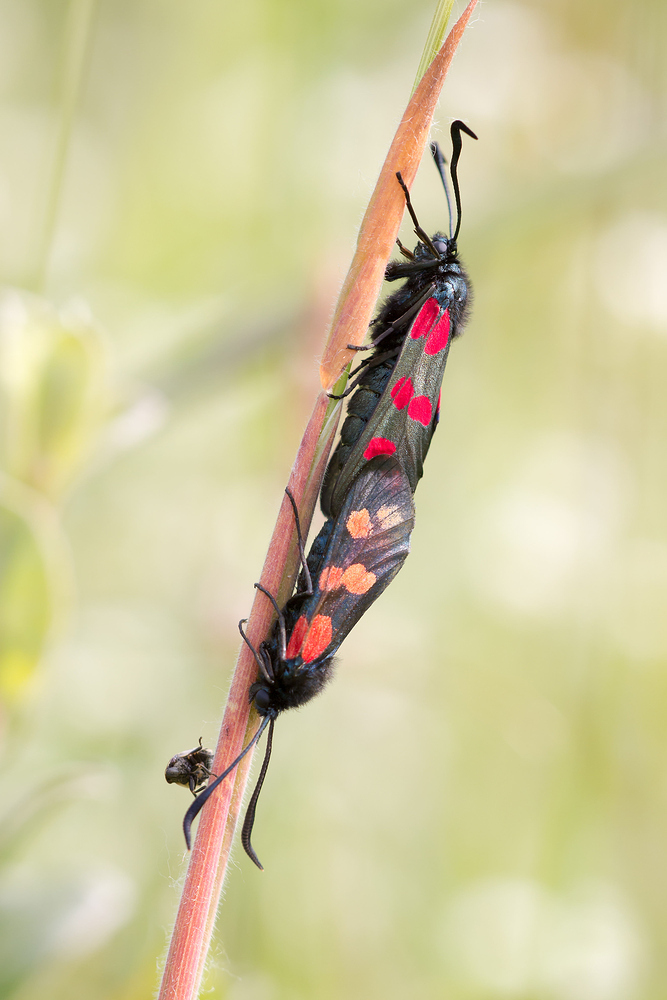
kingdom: Animalia
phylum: Arthropoda
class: Insecta
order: Lepidoptera
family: Zygaenidae
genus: Zygaena
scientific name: Zygaena filipendulae
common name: Six-spot burnet
